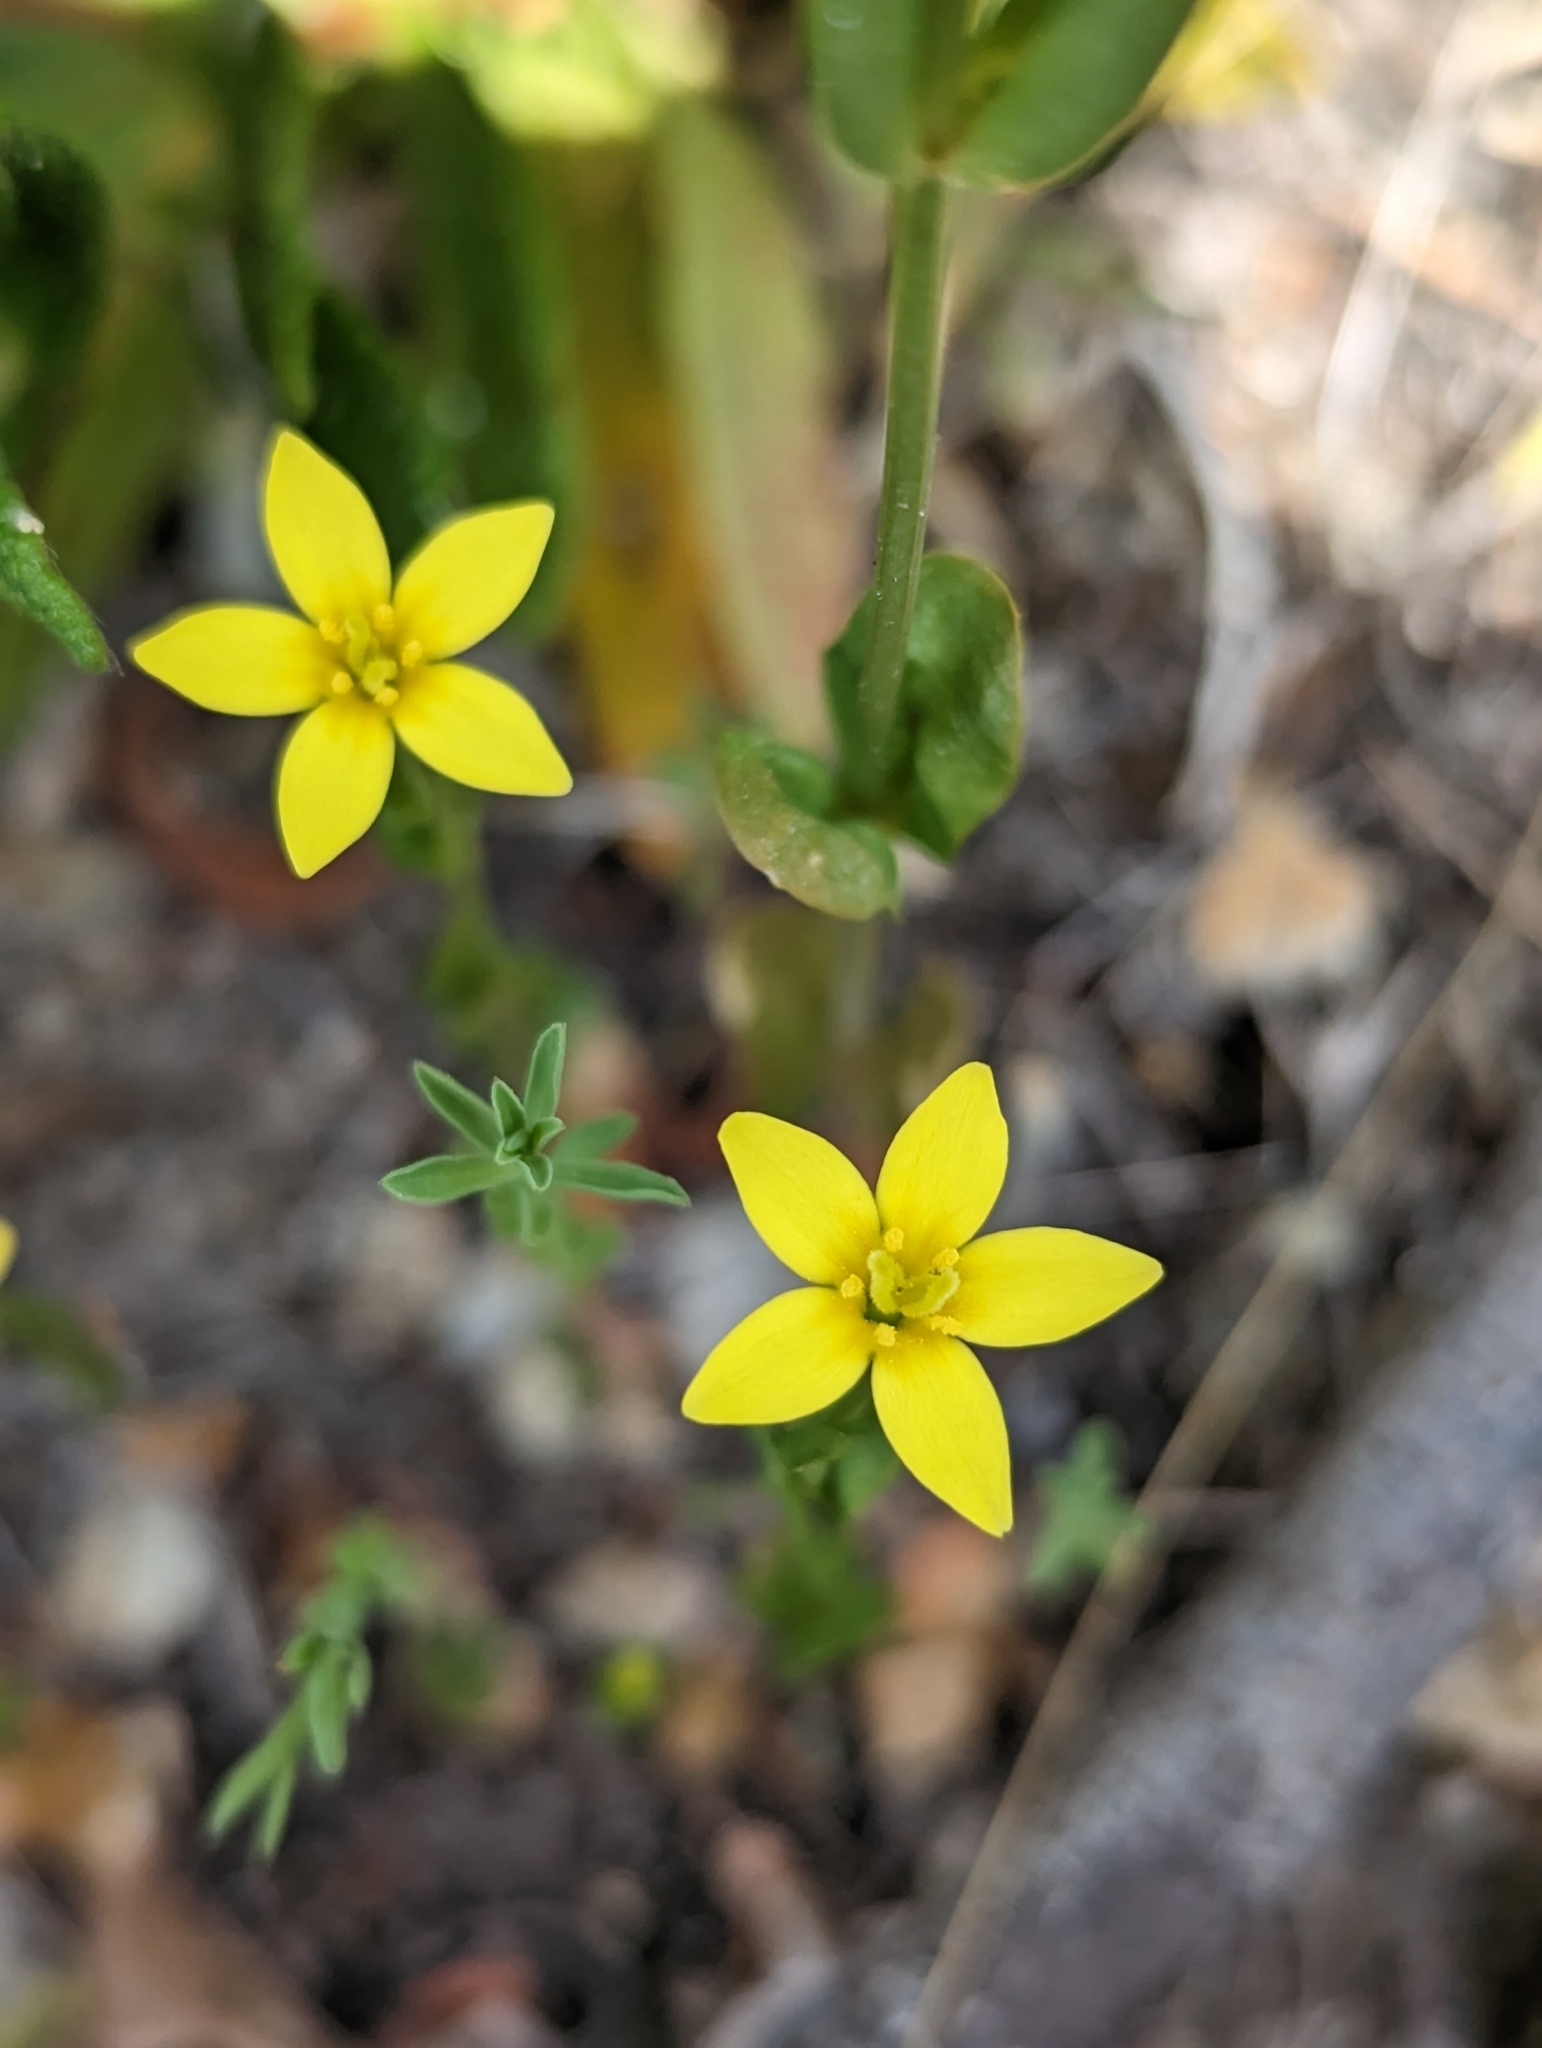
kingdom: Plantae
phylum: Tracheophyta
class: Magnoliopsida
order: Gentianales
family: Gentianaceae
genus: Centaurium
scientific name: Centaurium maritimum
